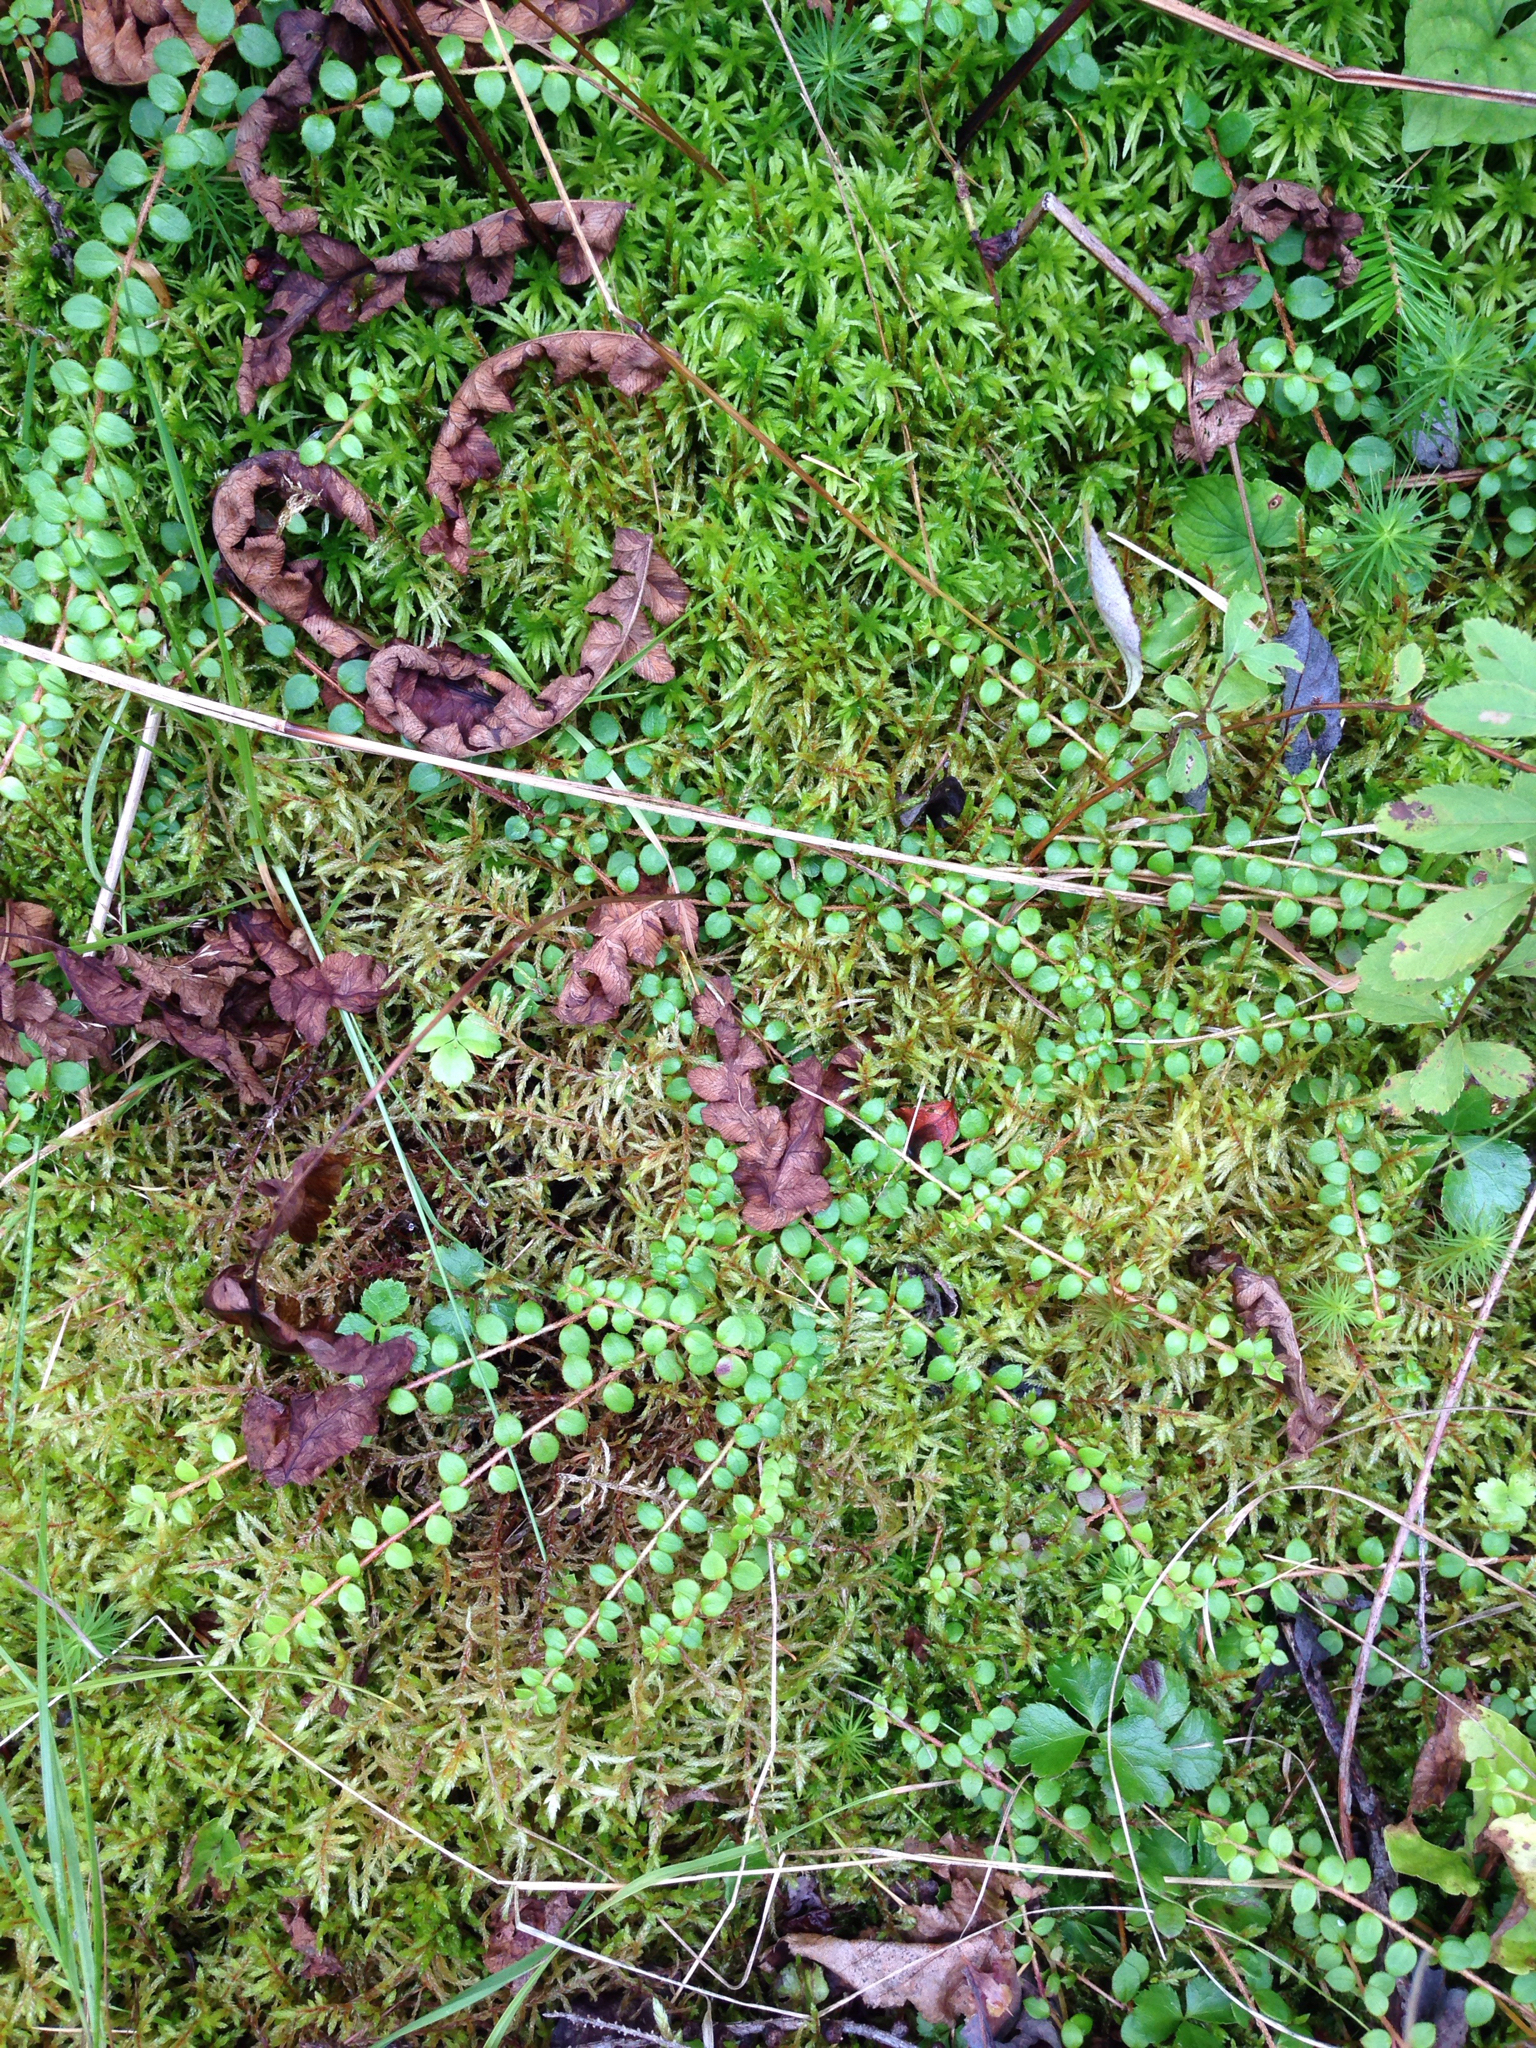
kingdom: Plantae
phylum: Tracheophyta
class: Magnoliopsida
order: Ericales
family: Ericaceae
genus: Gaultheria
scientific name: Gaultheria hispidula
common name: Cancer wintergreen
